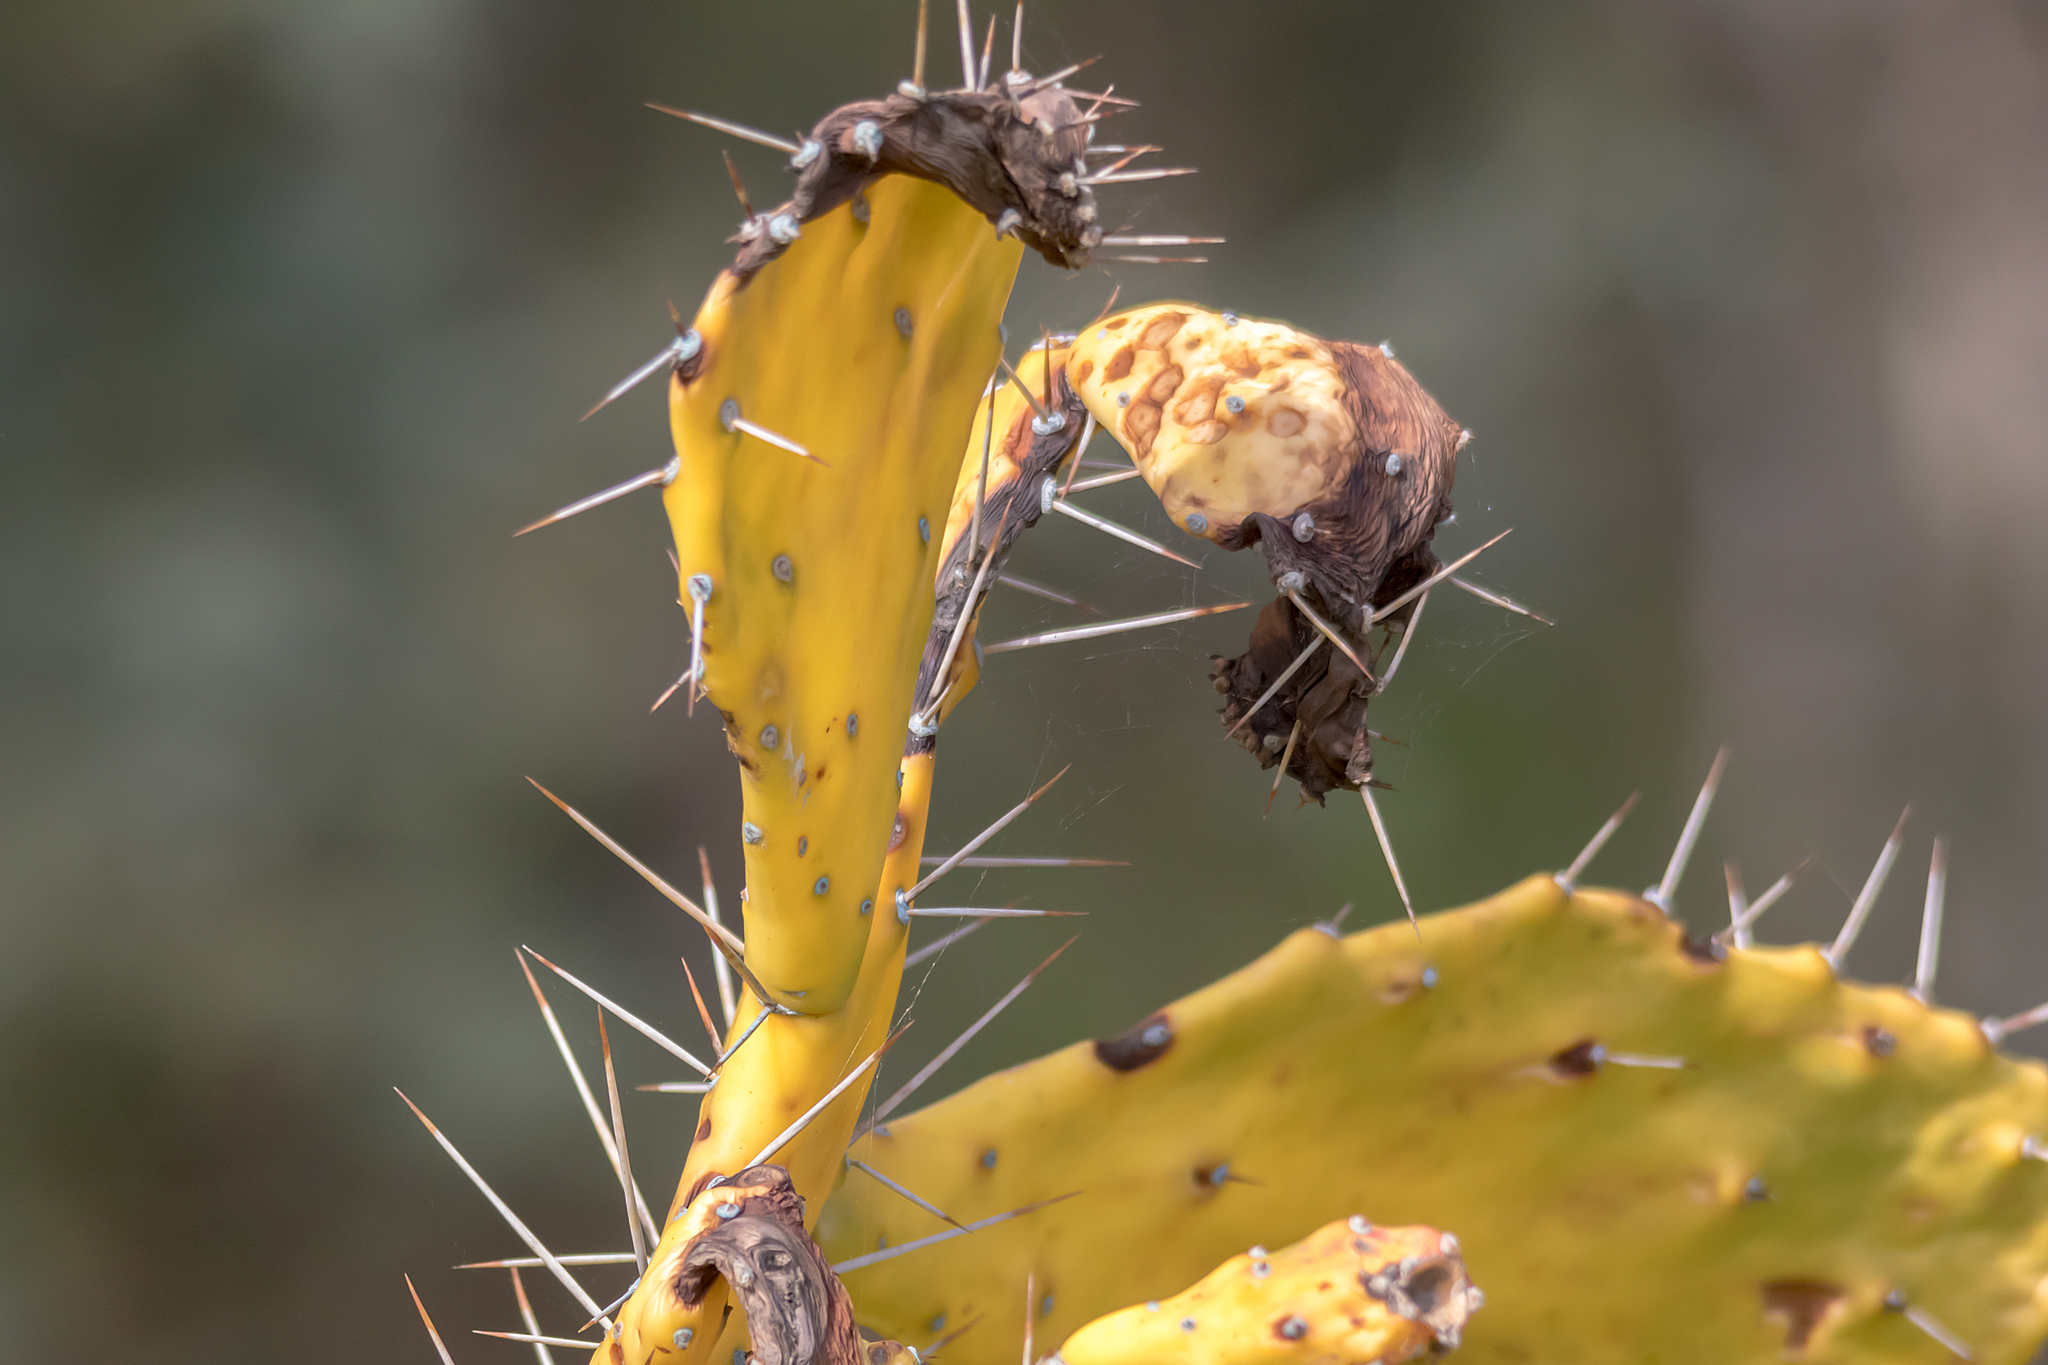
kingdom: Plantae
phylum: Tracheophyta
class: Magnoliopsida
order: Caryophyllales
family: Cactaceae
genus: Opuntia
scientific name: Opuntia monacantha
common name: Common pricklypear
